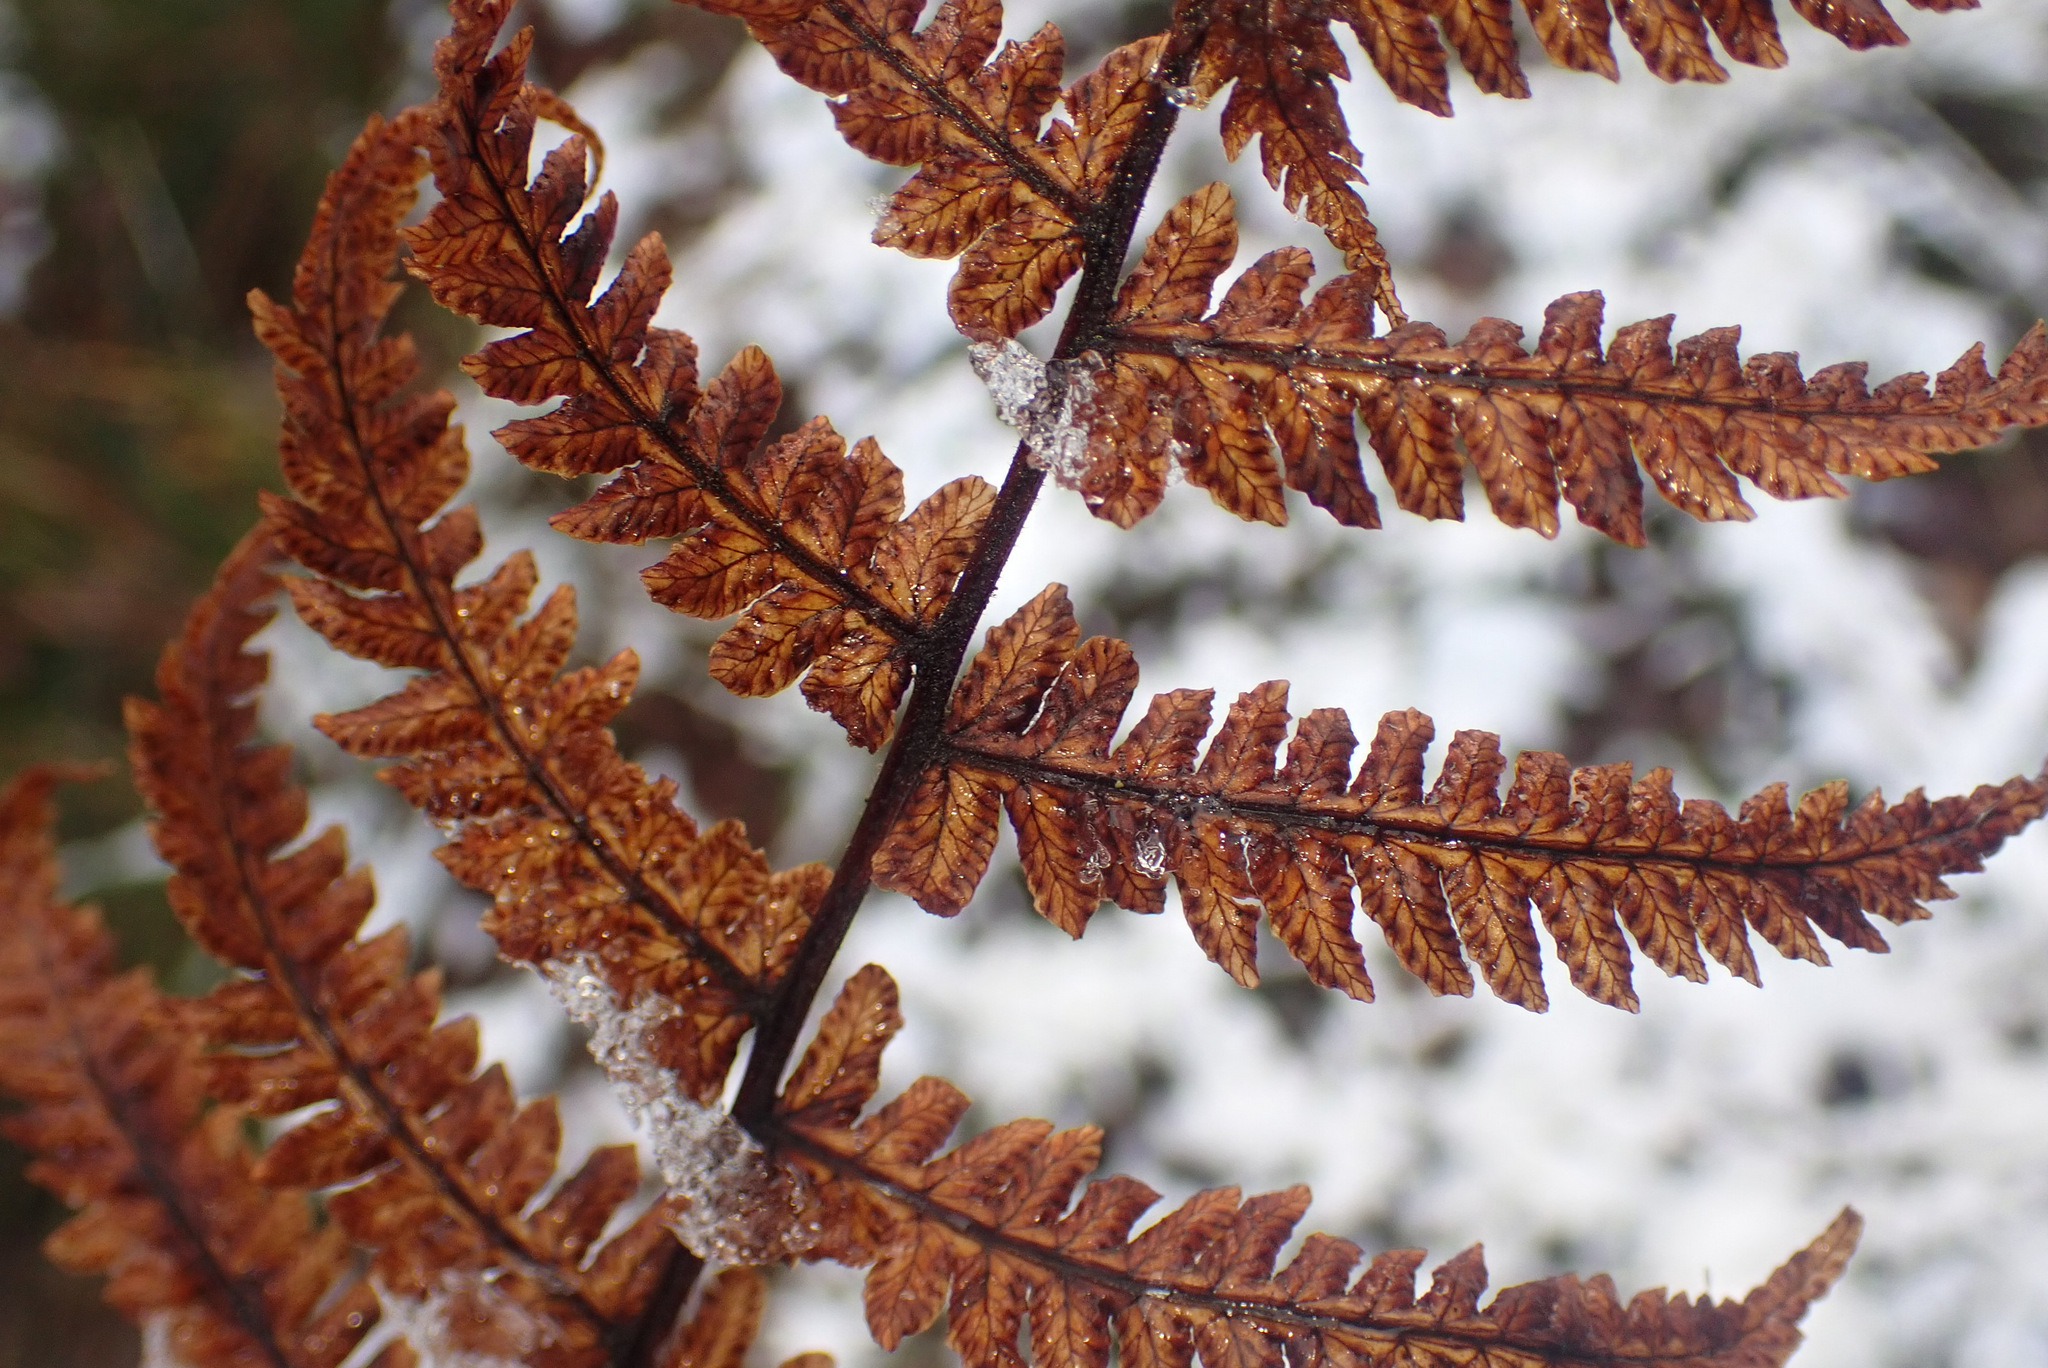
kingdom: Plantae
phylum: Tracheophyta
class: Polypodiopsida
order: Polypodiales
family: Thelypteridaceae
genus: Oreopteris
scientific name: Oreopteris limbosperma
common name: Lemon-scented fern
